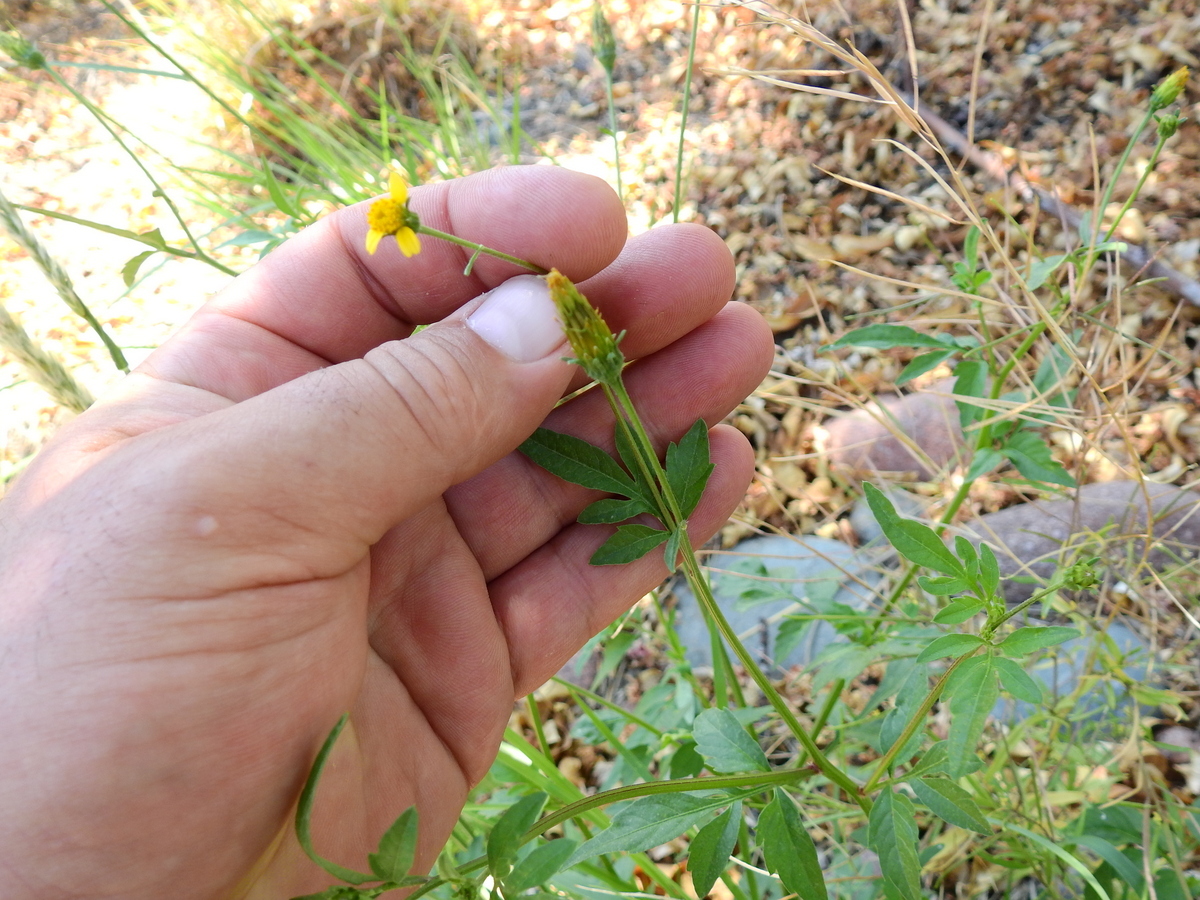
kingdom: Plantae
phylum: Tracheophyta
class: Magnoliopsida
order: Asterales
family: Asteraceae
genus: Bidens
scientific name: Bidens subalternans
